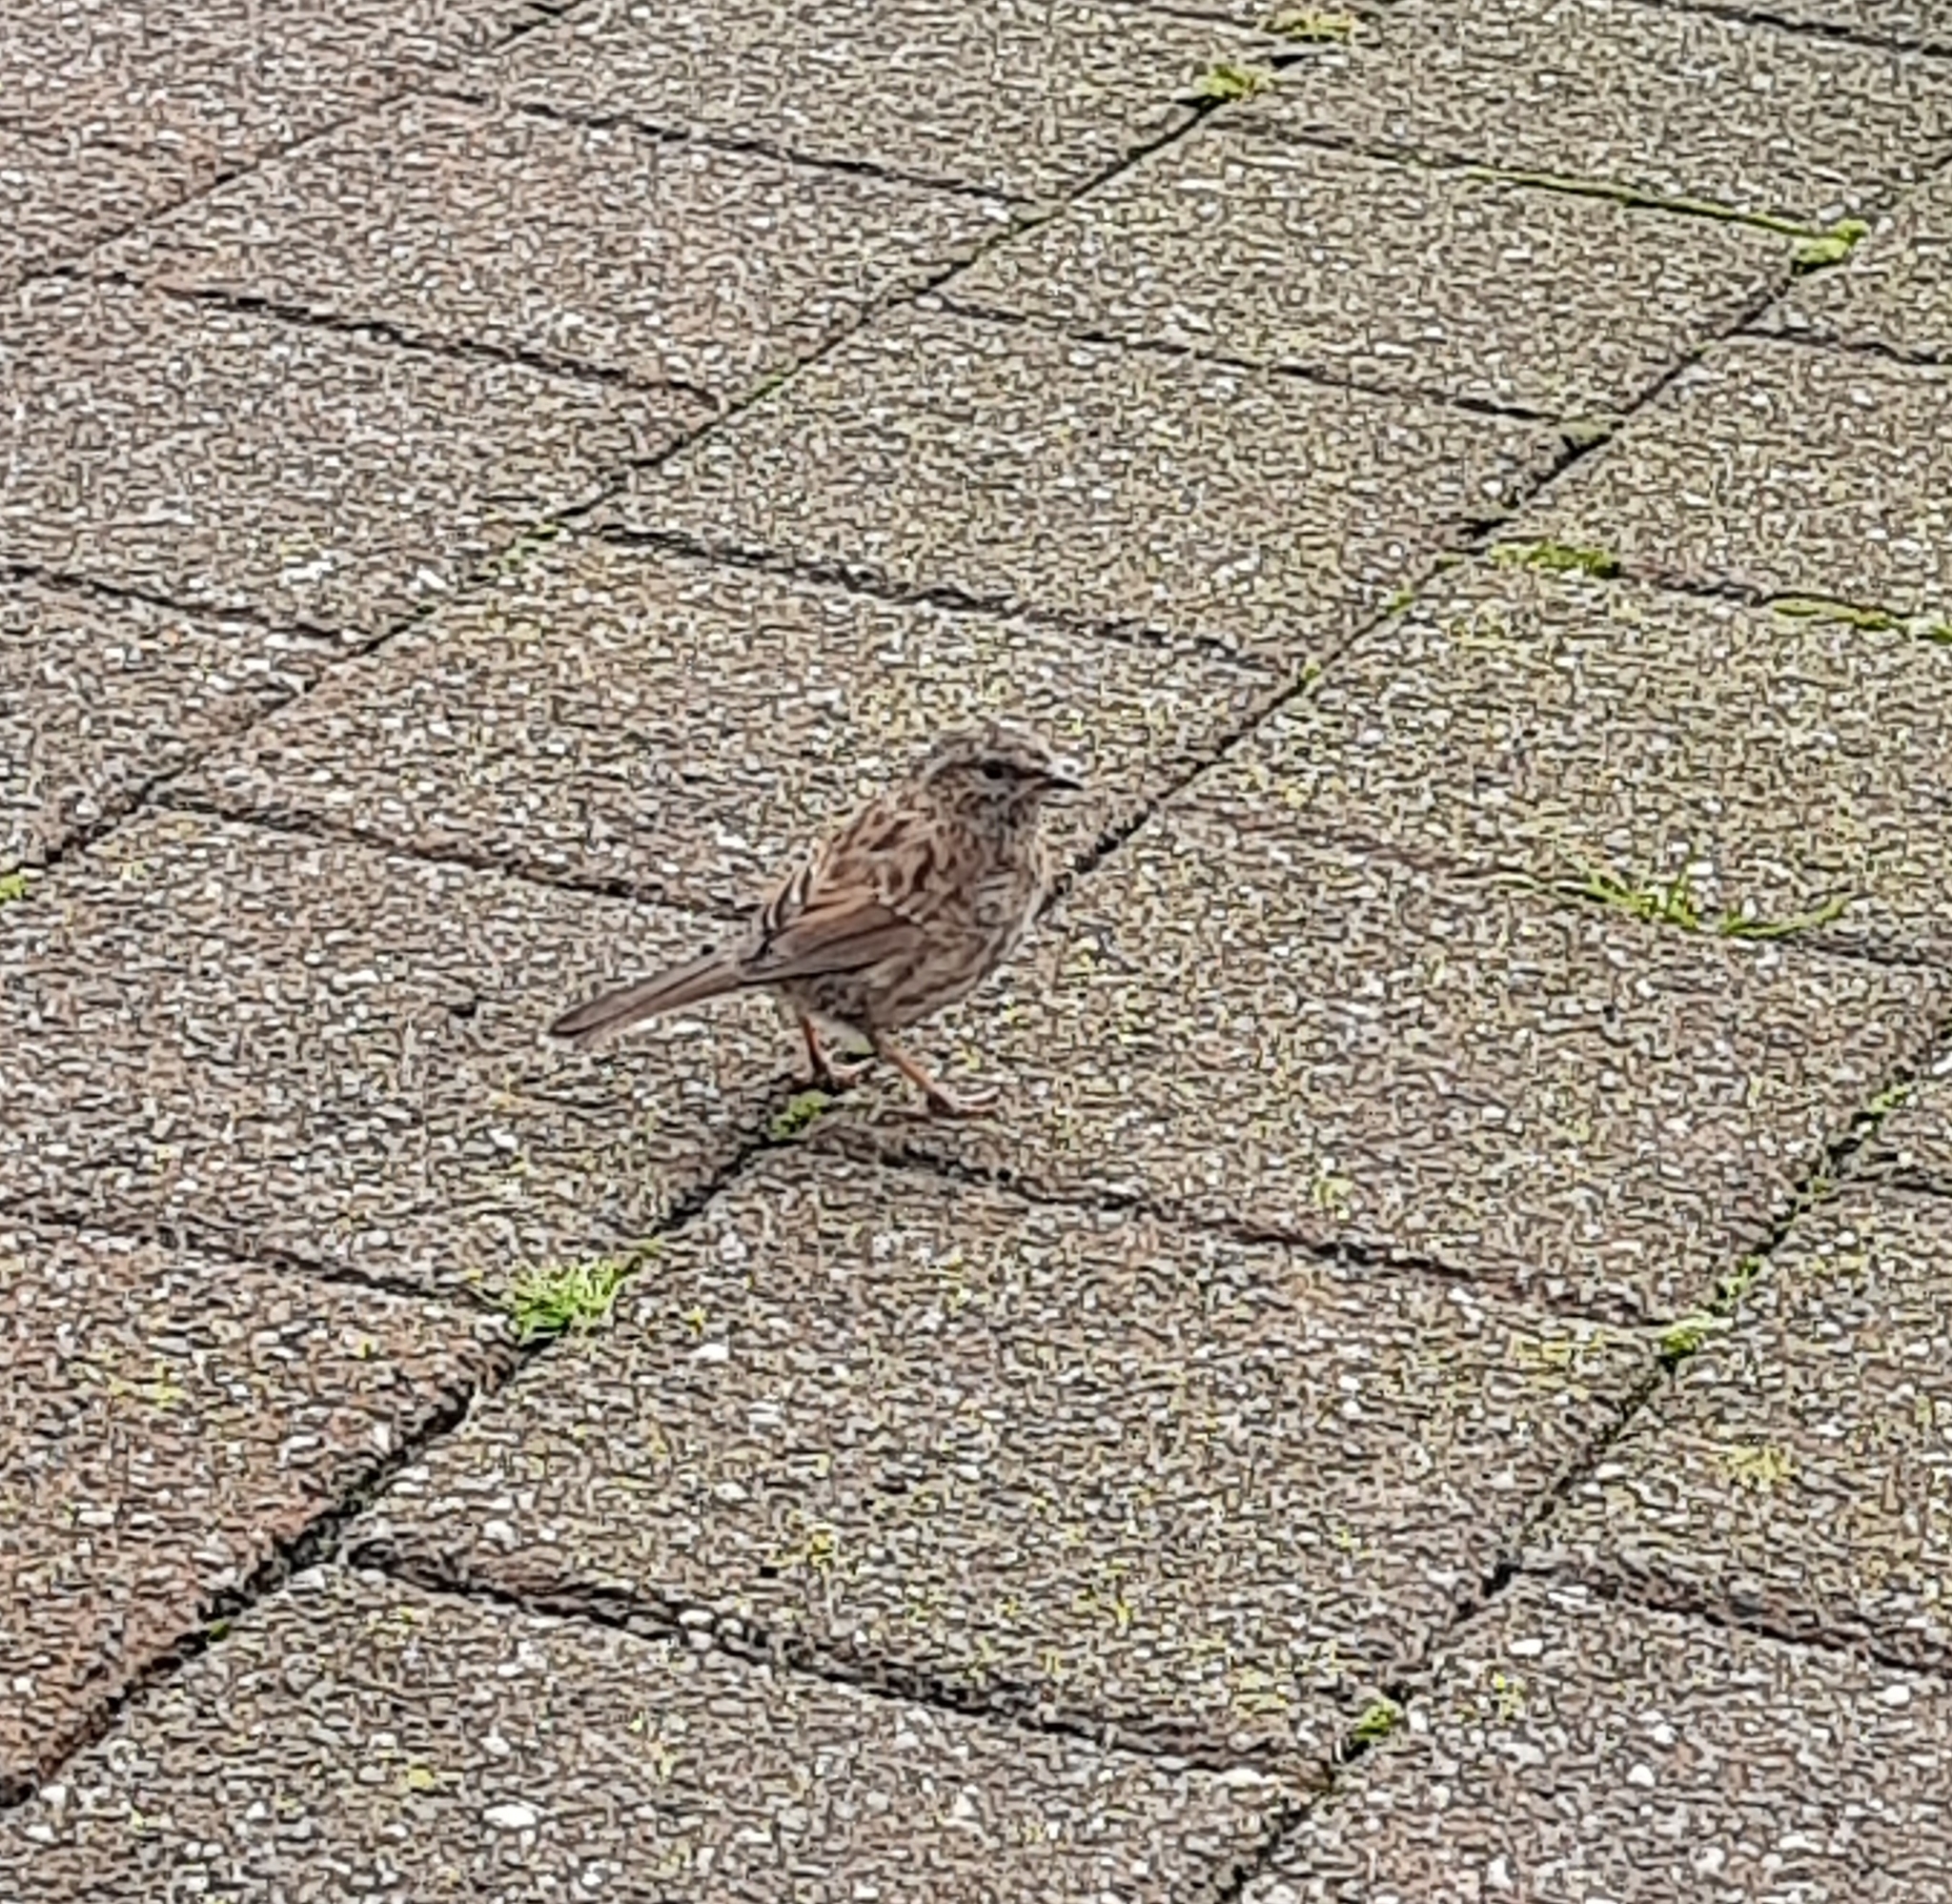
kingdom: Animalia
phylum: Chordata
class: Aves
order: Passeriformes
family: Prunellidae
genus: Prunella
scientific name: Prunella modularis
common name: Dunnock
